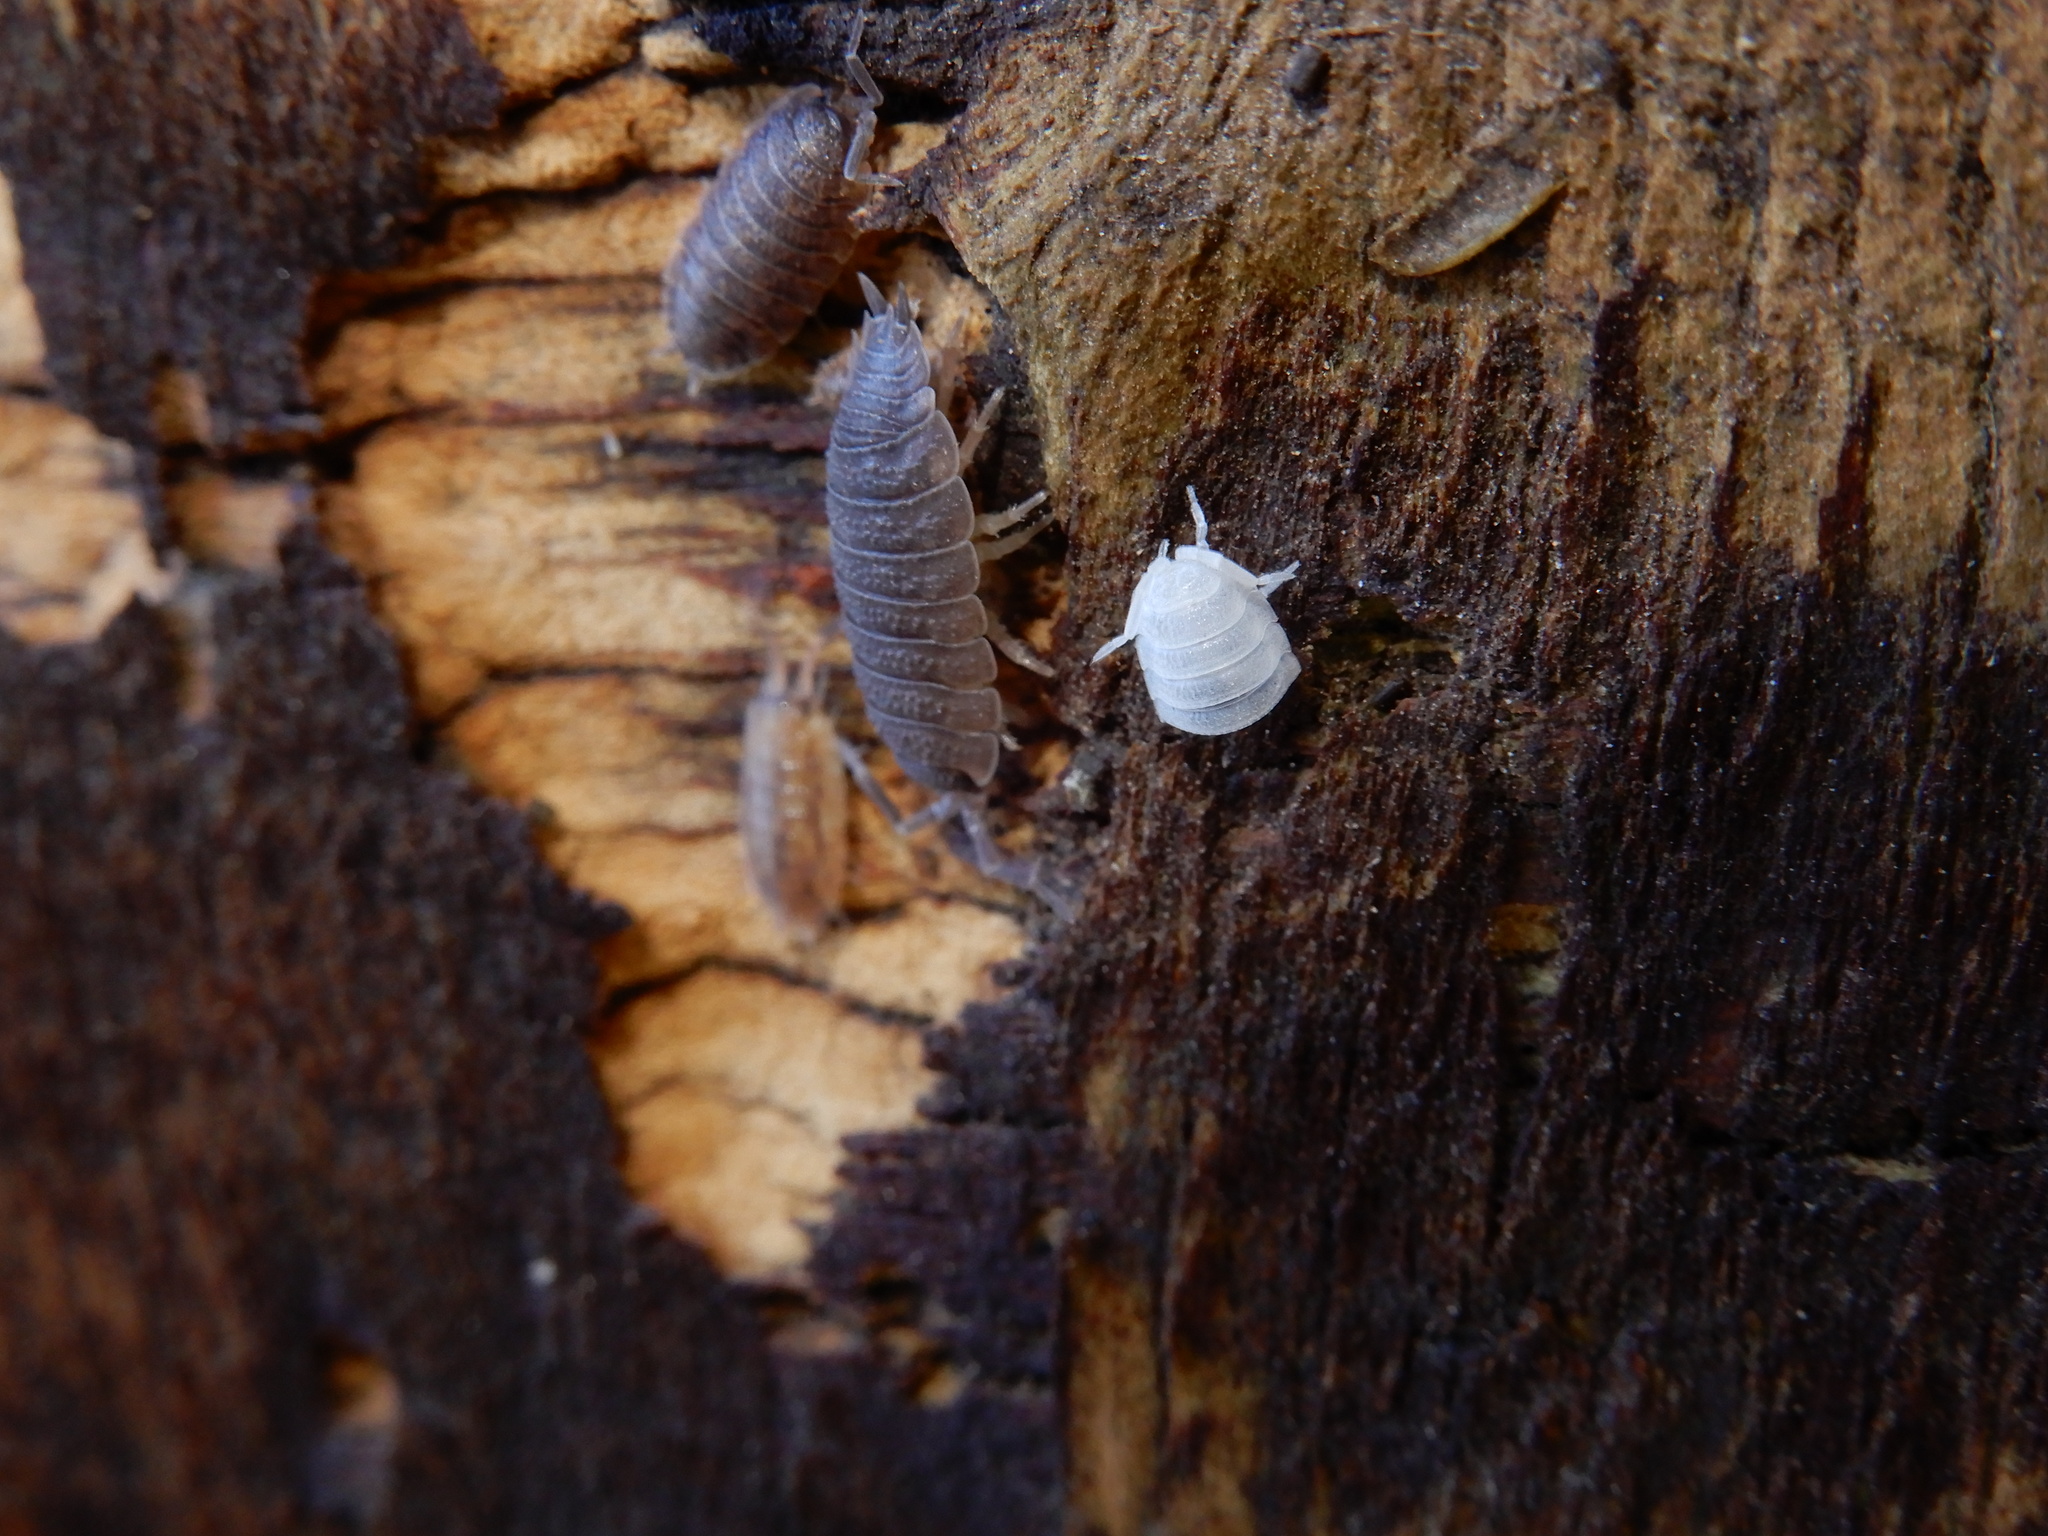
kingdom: Animalia
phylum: Arthropoda
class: Malacostraca
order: Isopoda
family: Porcellionidae
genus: Porcellio
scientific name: Porcellio scaber
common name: Common rough woodlouse
